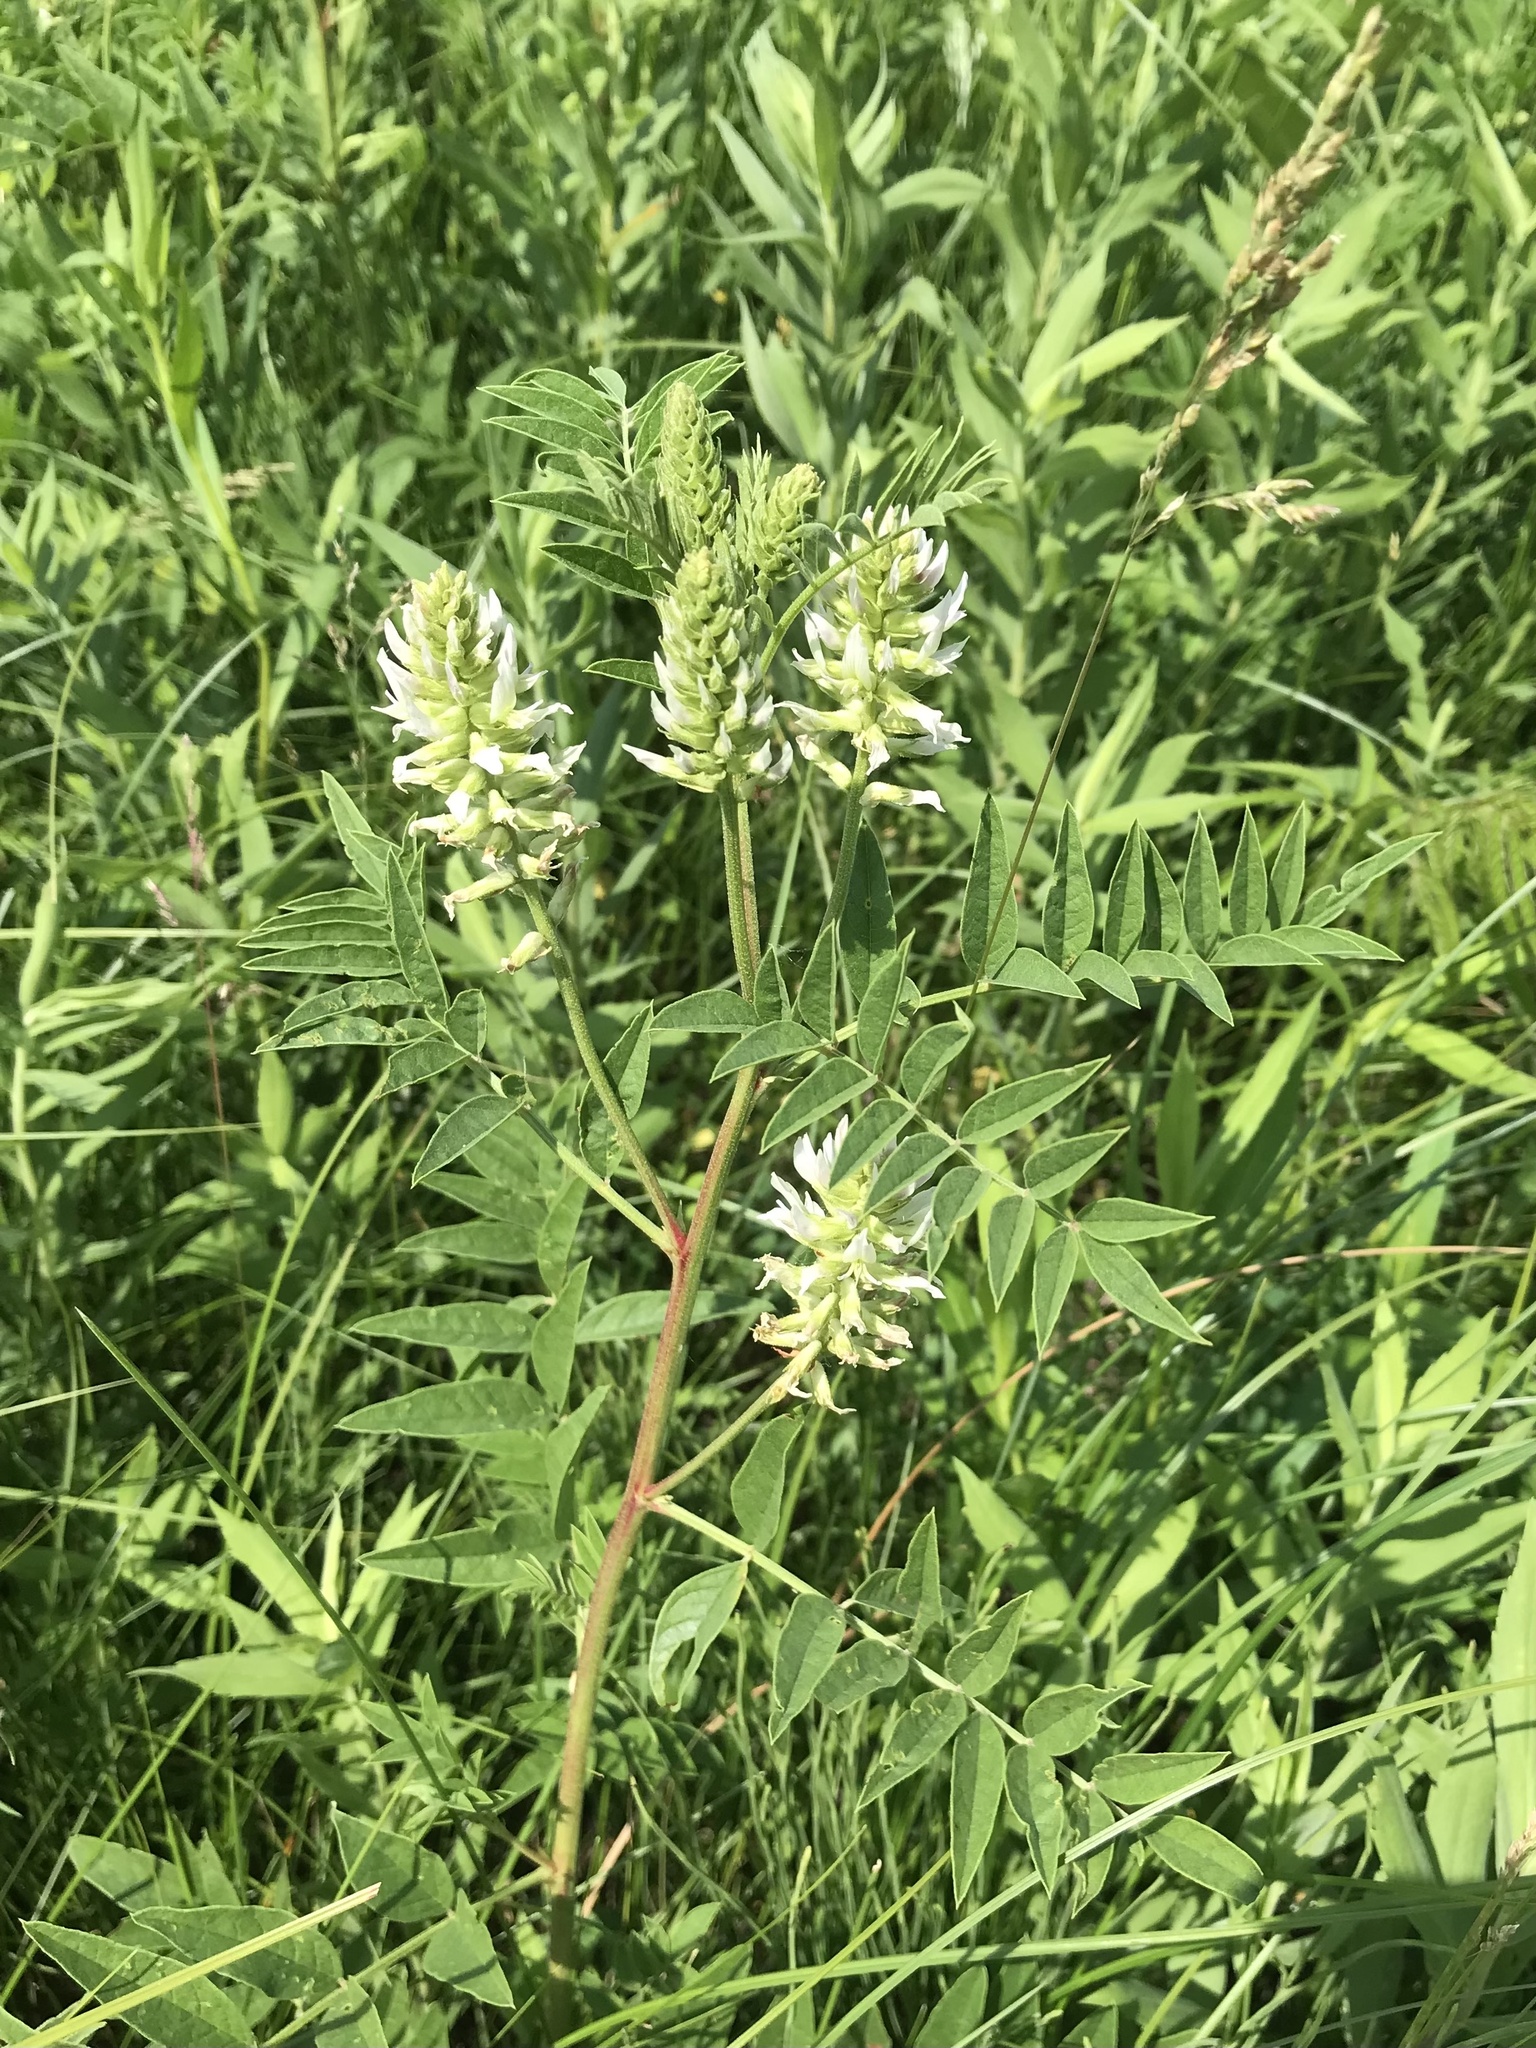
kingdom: Plantae
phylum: Tracheophyta
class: Magnoliopsida
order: Fabales
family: Fabaceae
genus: Glycyrrhiza
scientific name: Glycyrrhiza lepidota
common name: American liquorice
